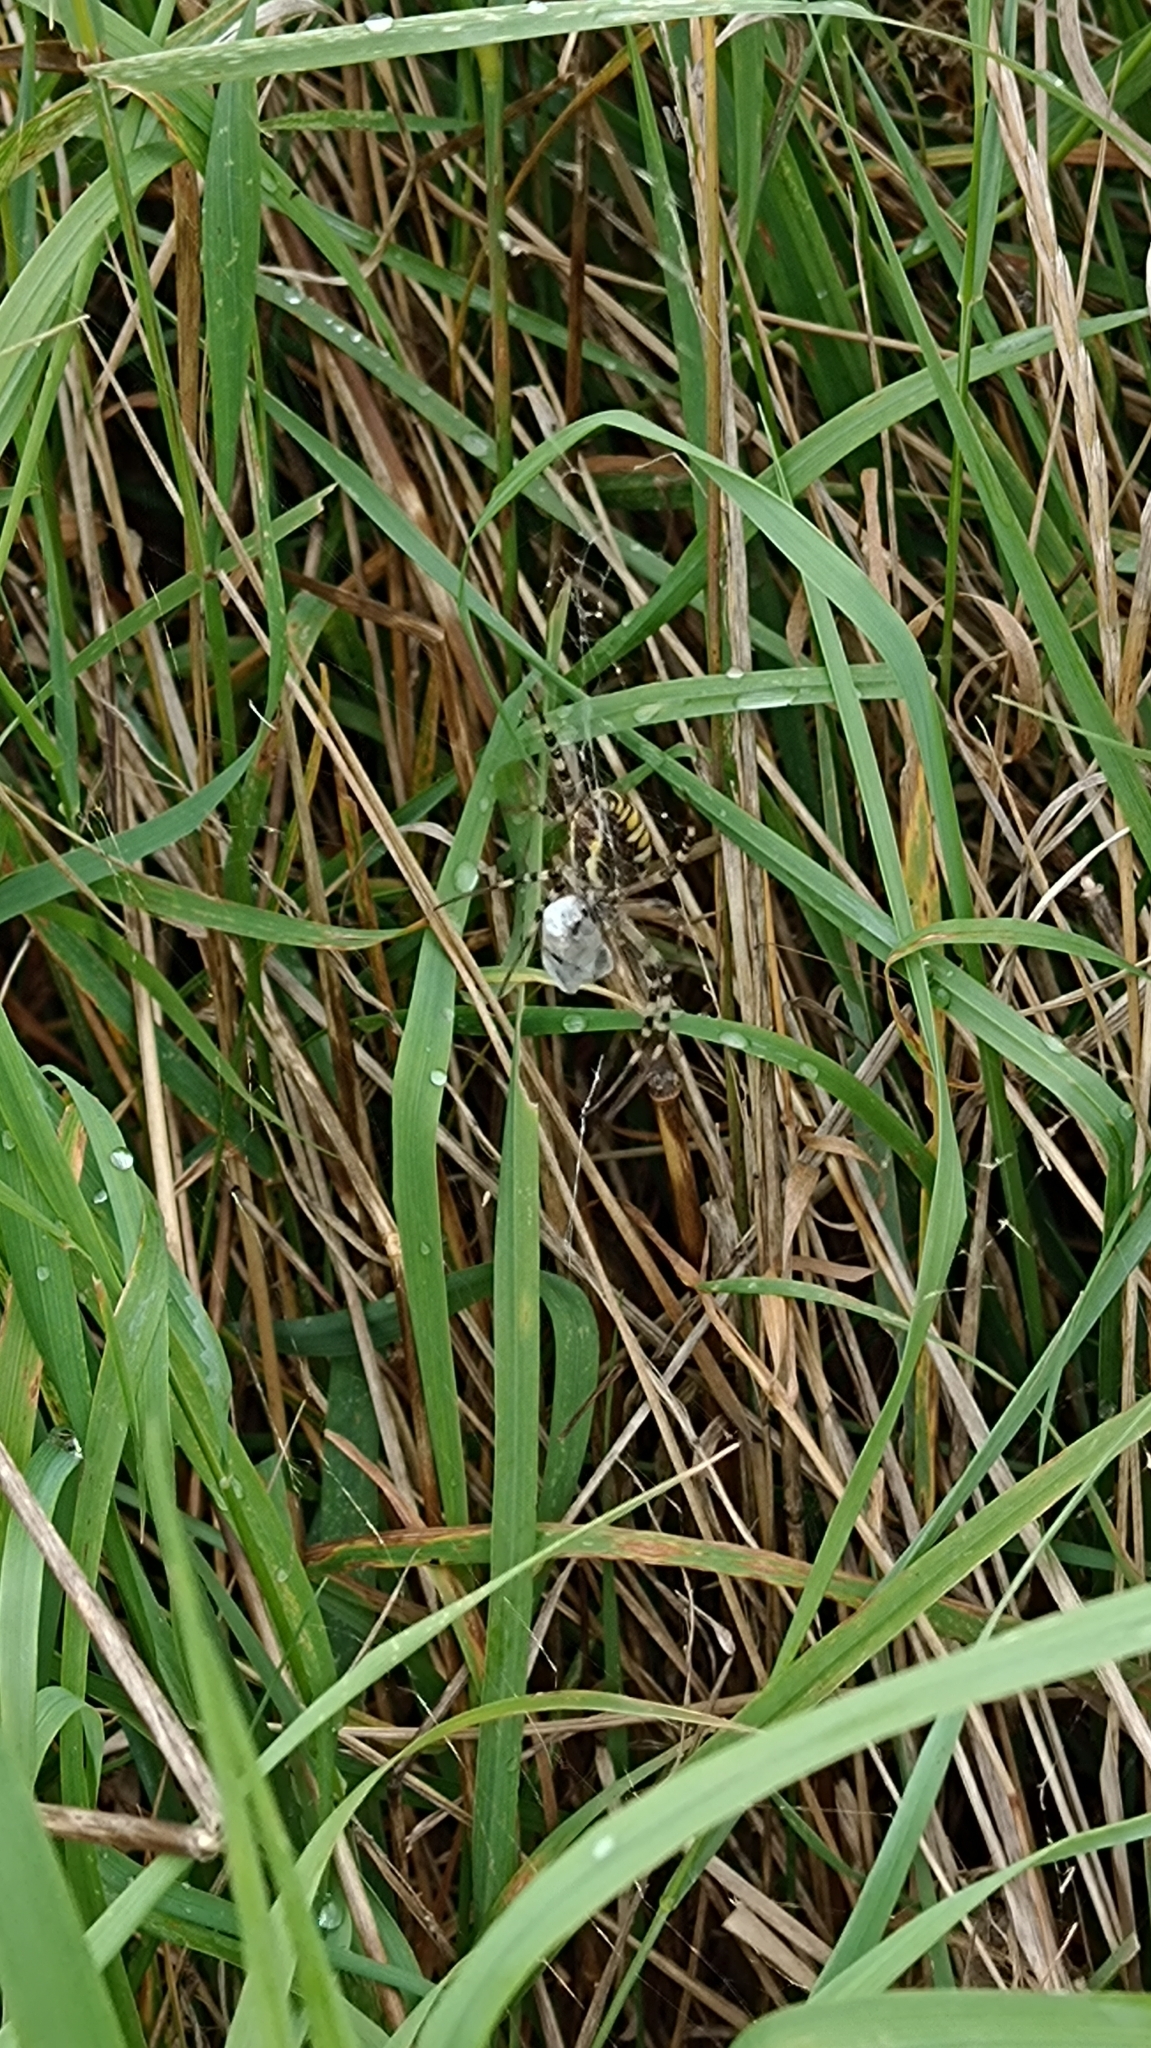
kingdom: Animalia
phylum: Arthropoda
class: Arachnida
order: Araneae
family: Araneidae
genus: Argiope
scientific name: Argiope bruennichi
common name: Wasp spider
